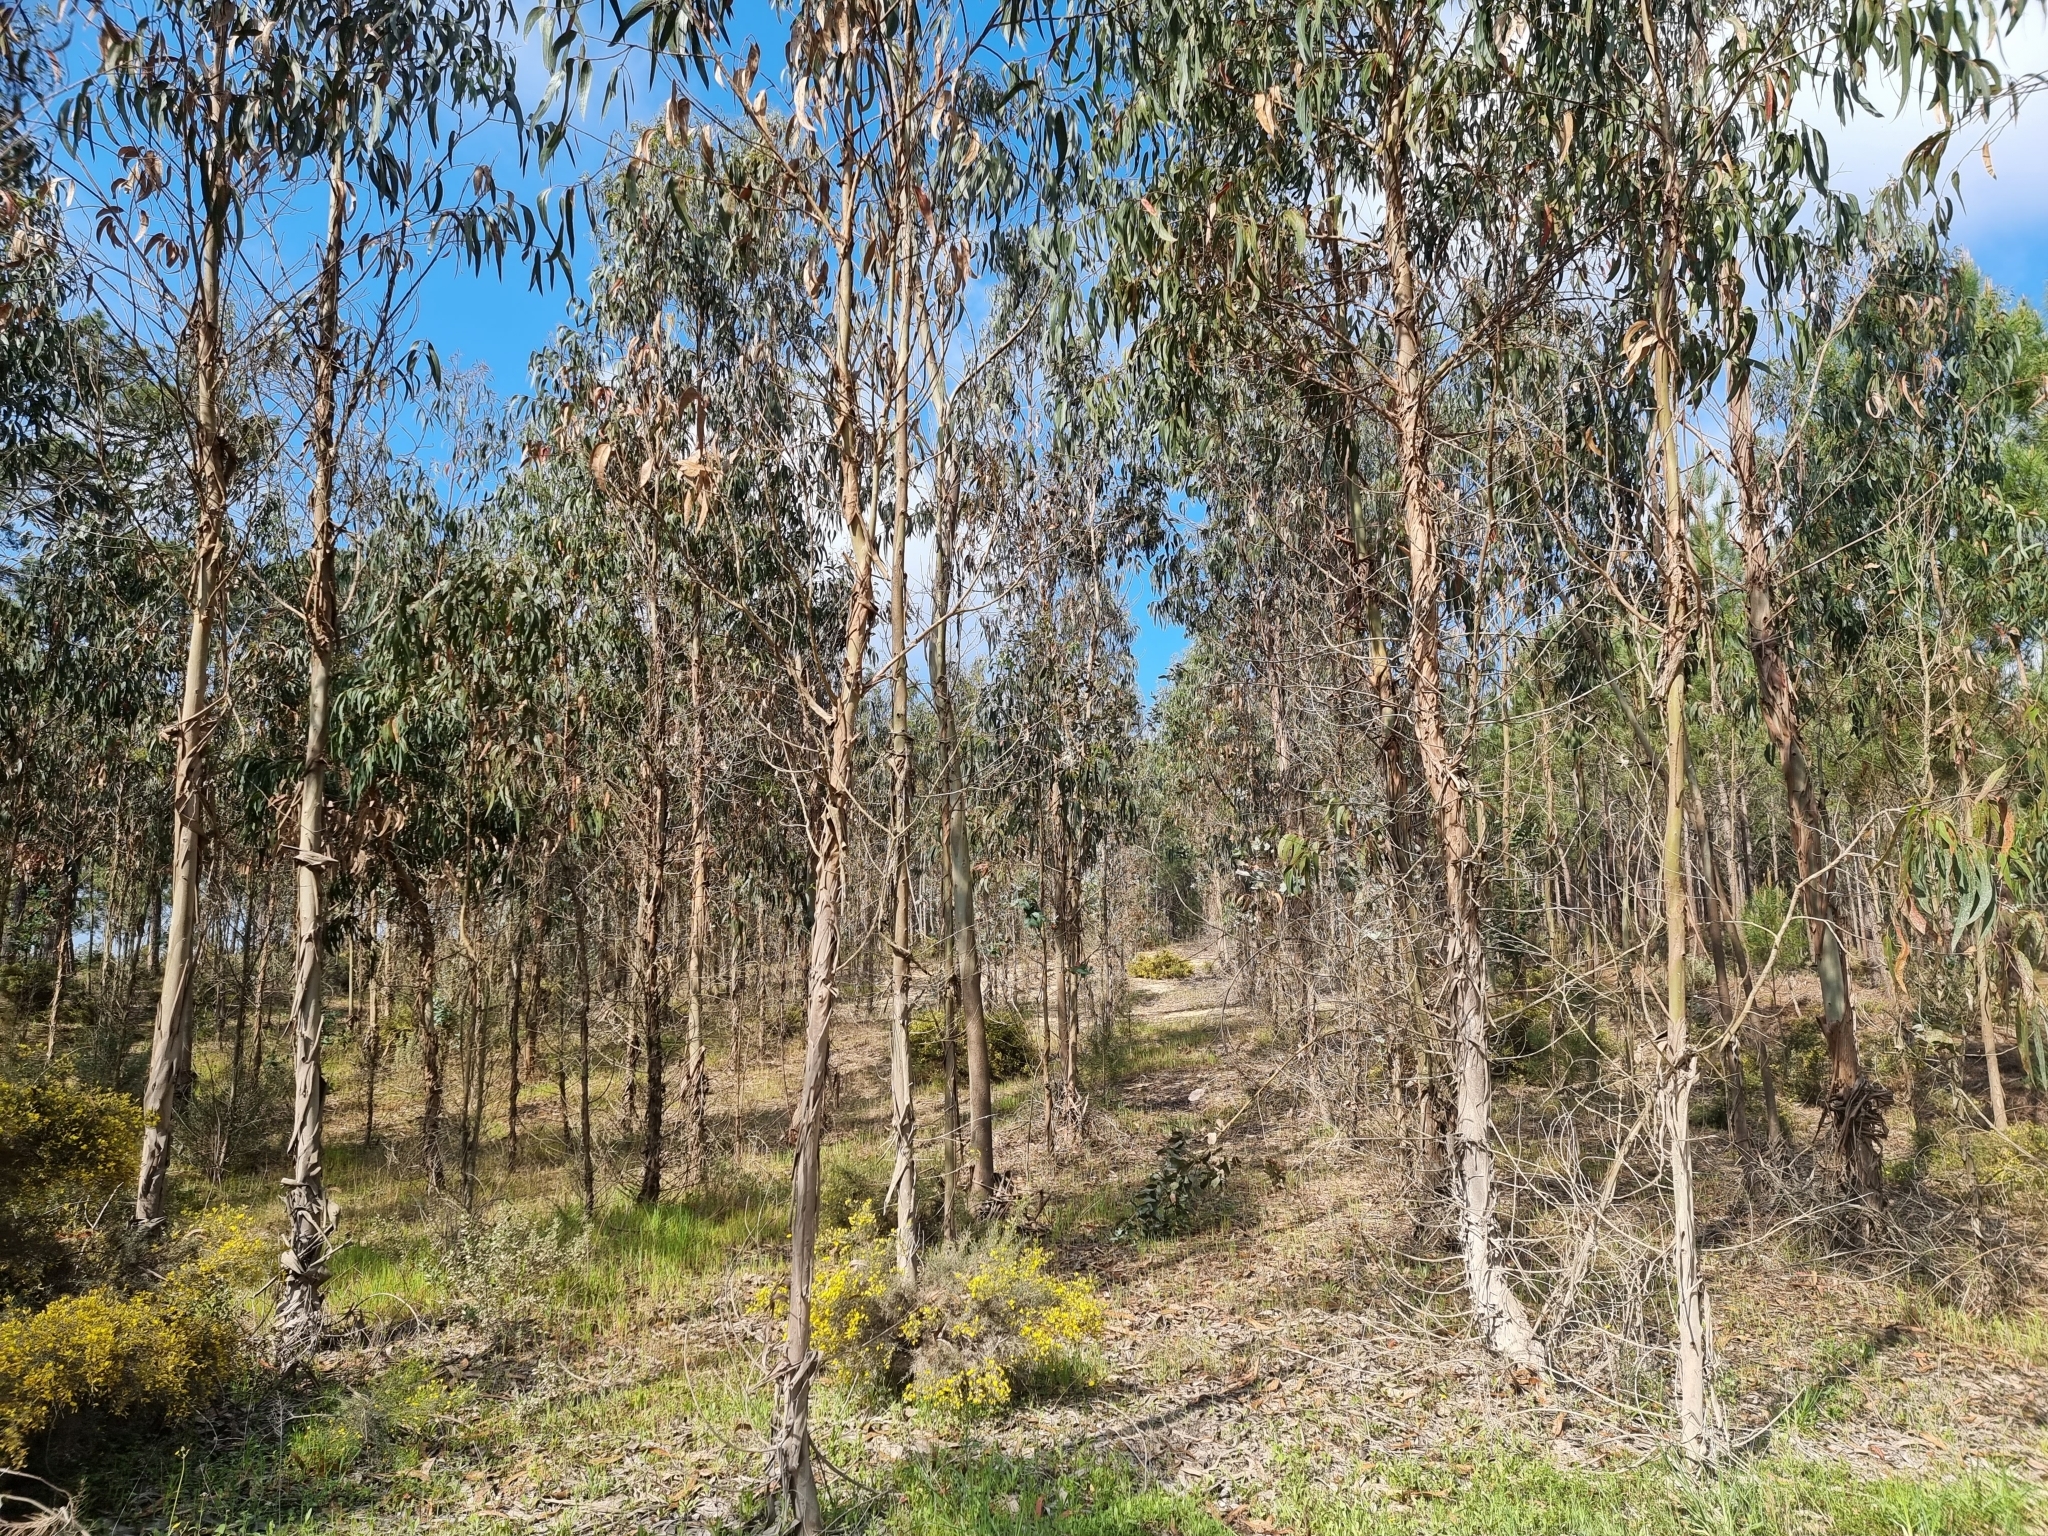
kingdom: Plantae
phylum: Tracheophyta
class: Magnoliopsida
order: Myrtales
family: Myrtaceae
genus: Eucalyptus
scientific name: Eucalyptus globulus
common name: Southern blue-gum
